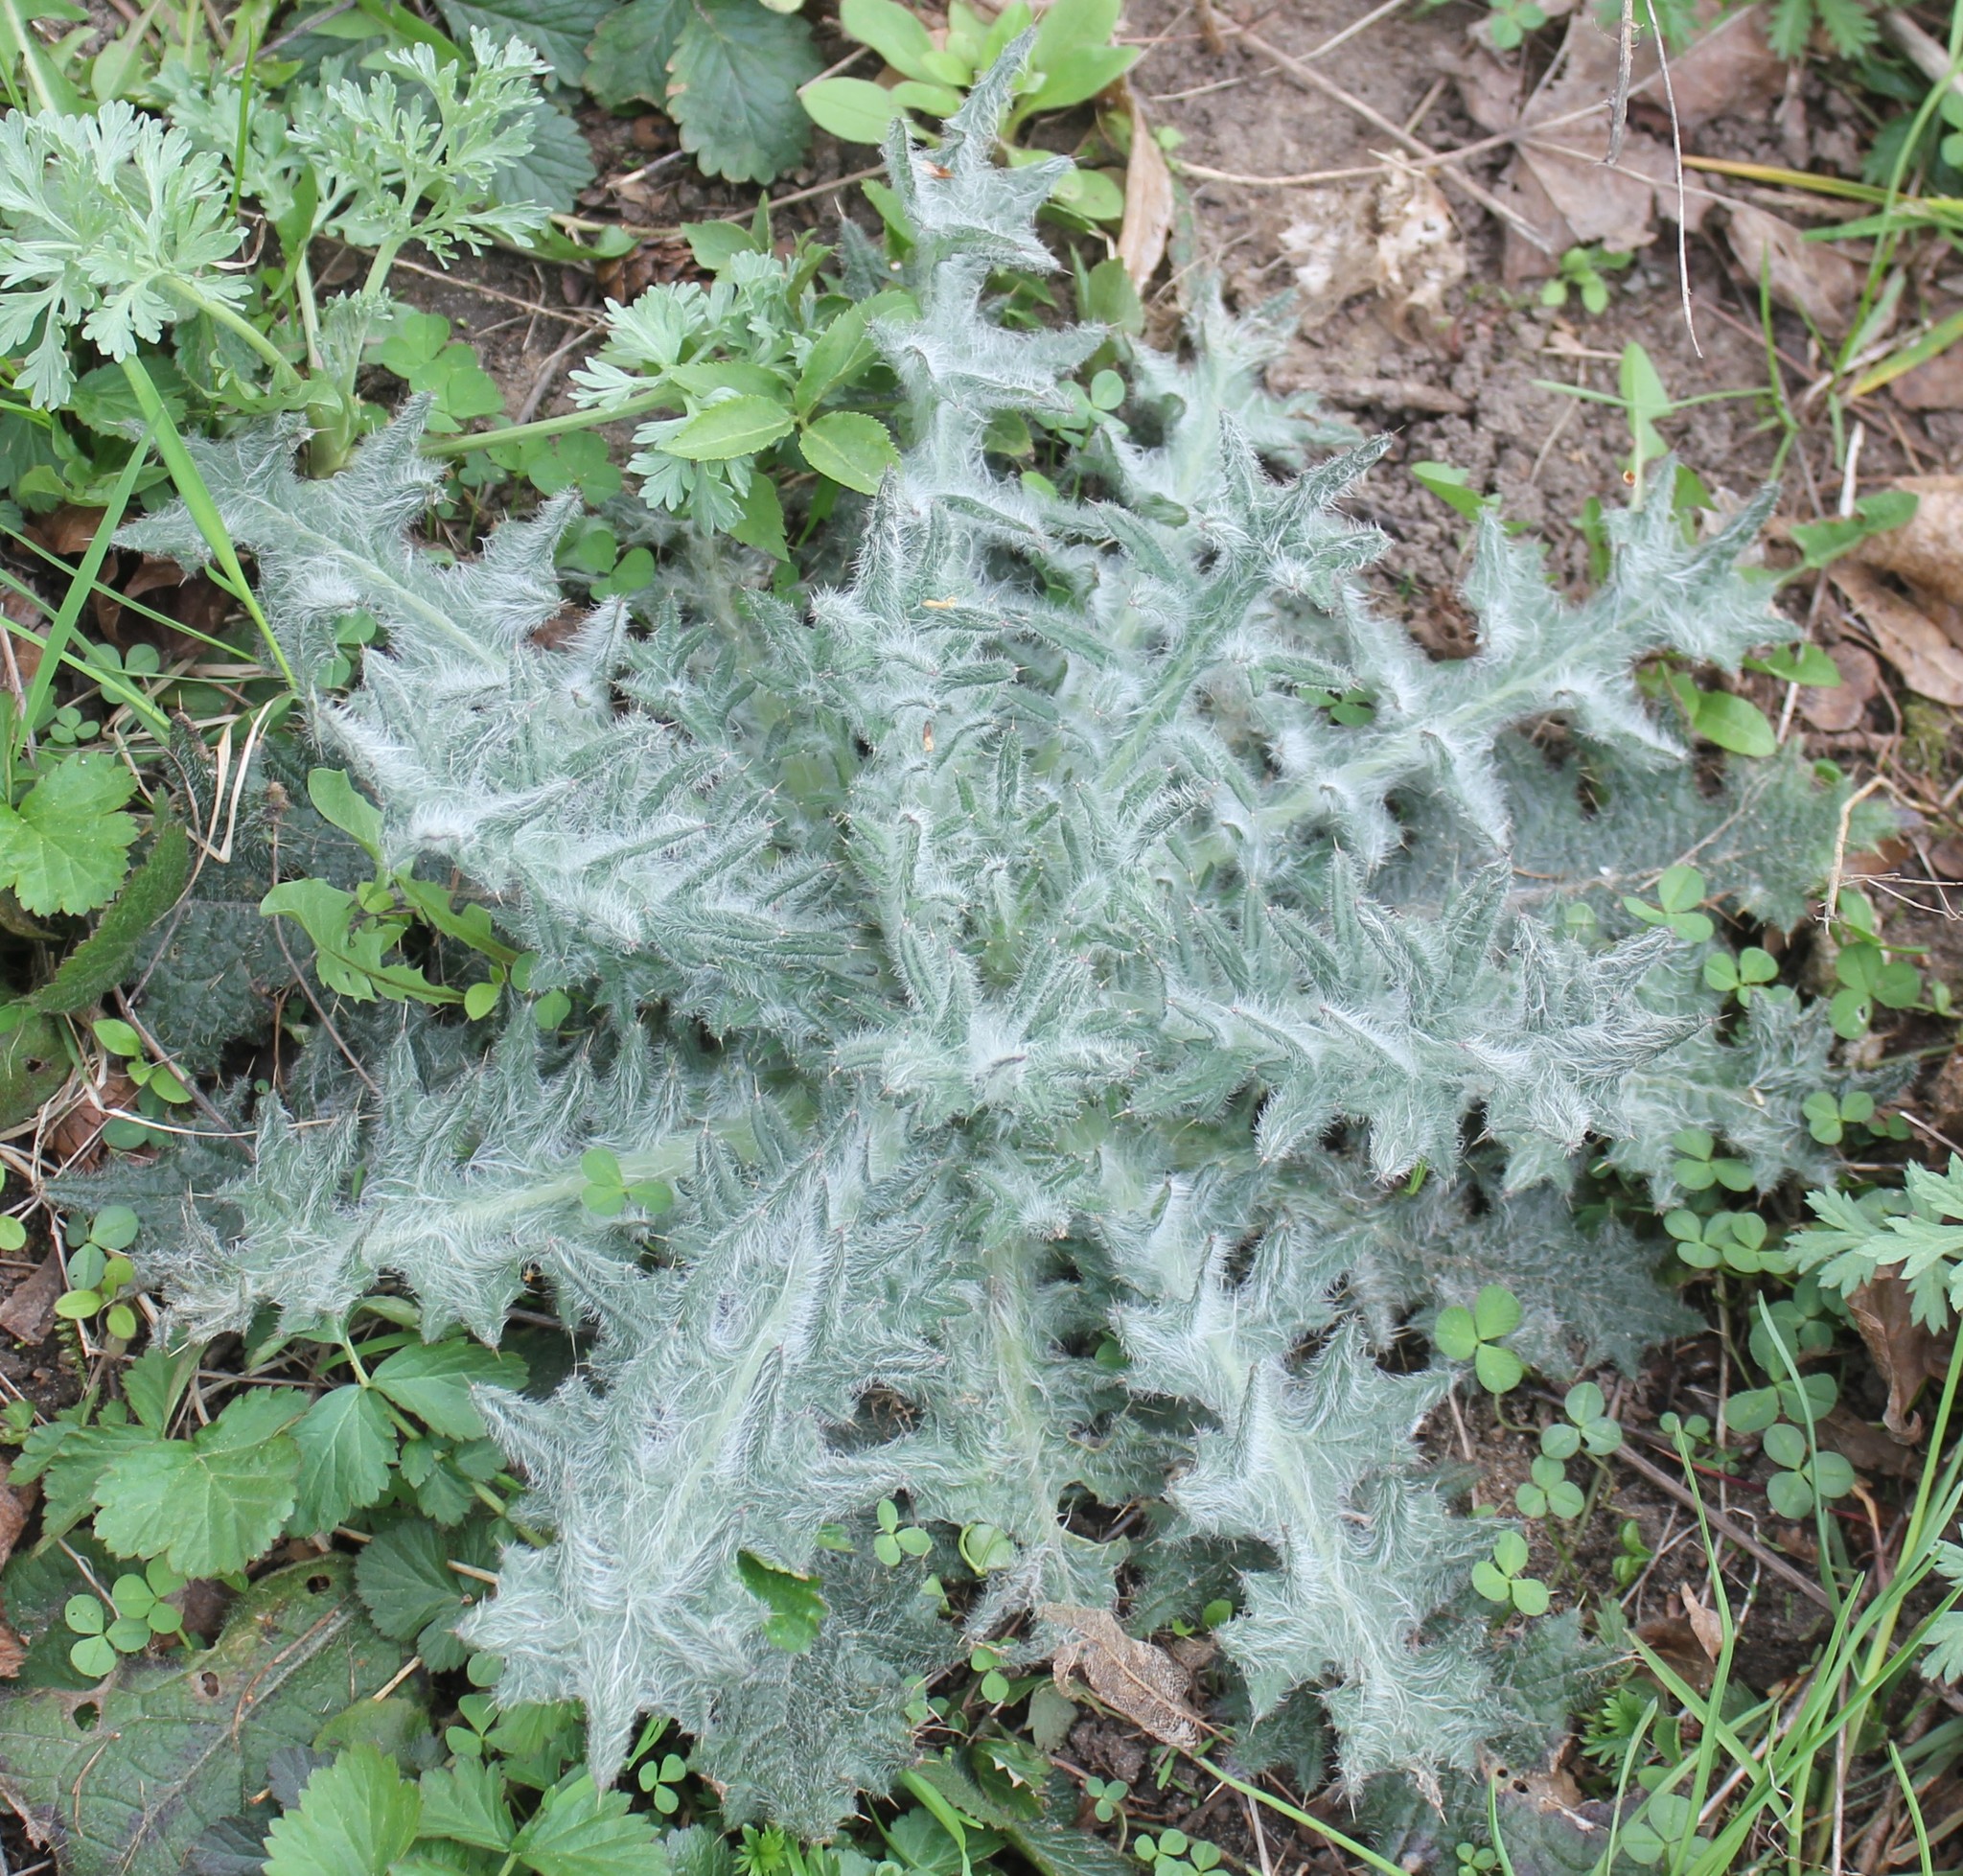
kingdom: Plantae
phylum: Tracheophyta
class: Magnoliopsida
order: Asterales
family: Asteraceae
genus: Cirsium
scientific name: Cirsium vulgare
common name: Bull thistle
